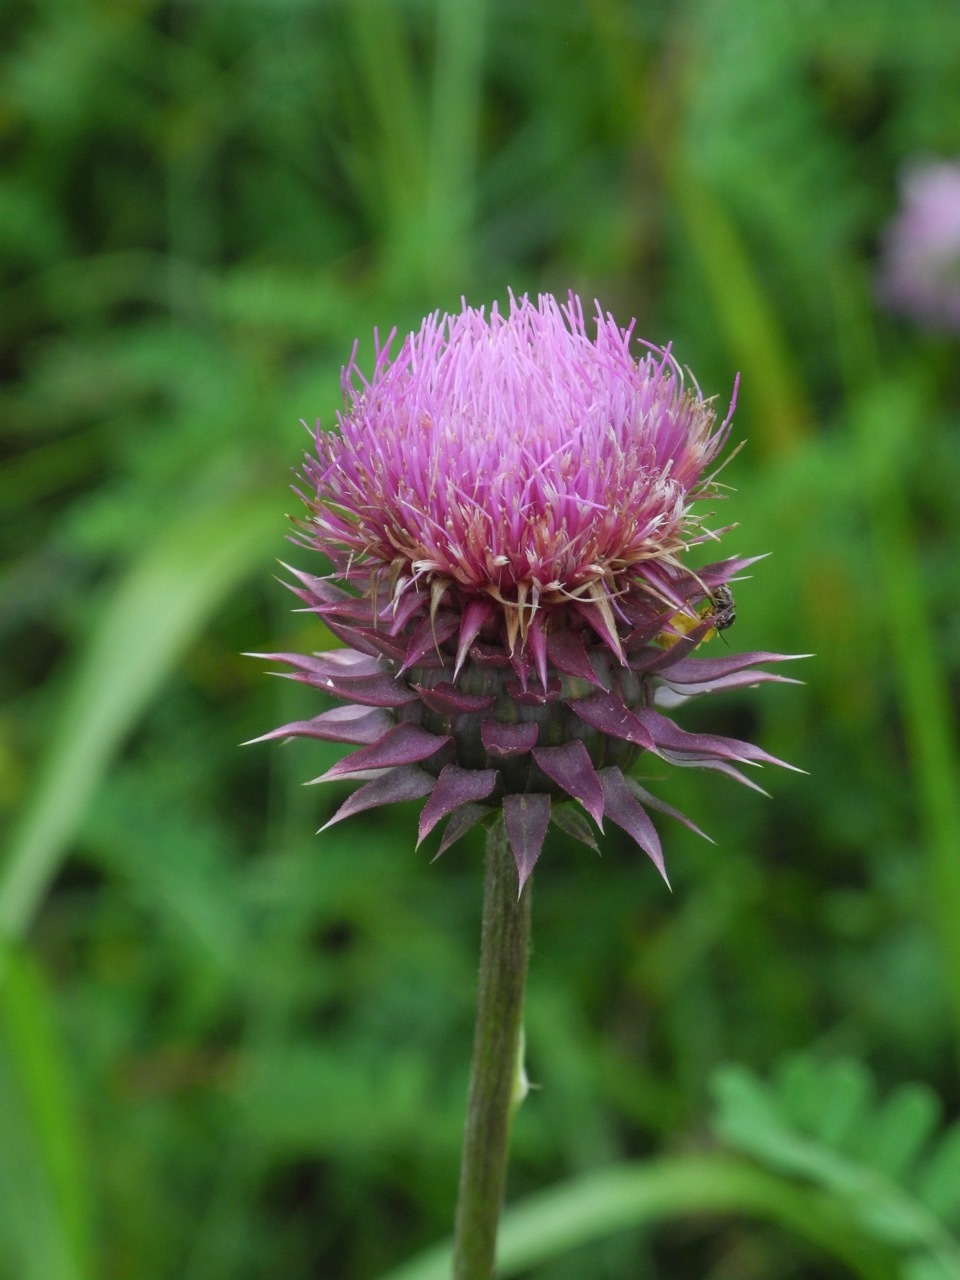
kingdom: Plantae
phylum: Tracheophyta
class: Magnoliopsida
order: Asterales
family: Asteraceae
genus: Carduus
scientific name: Carduus nutans
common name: Musk thistle
